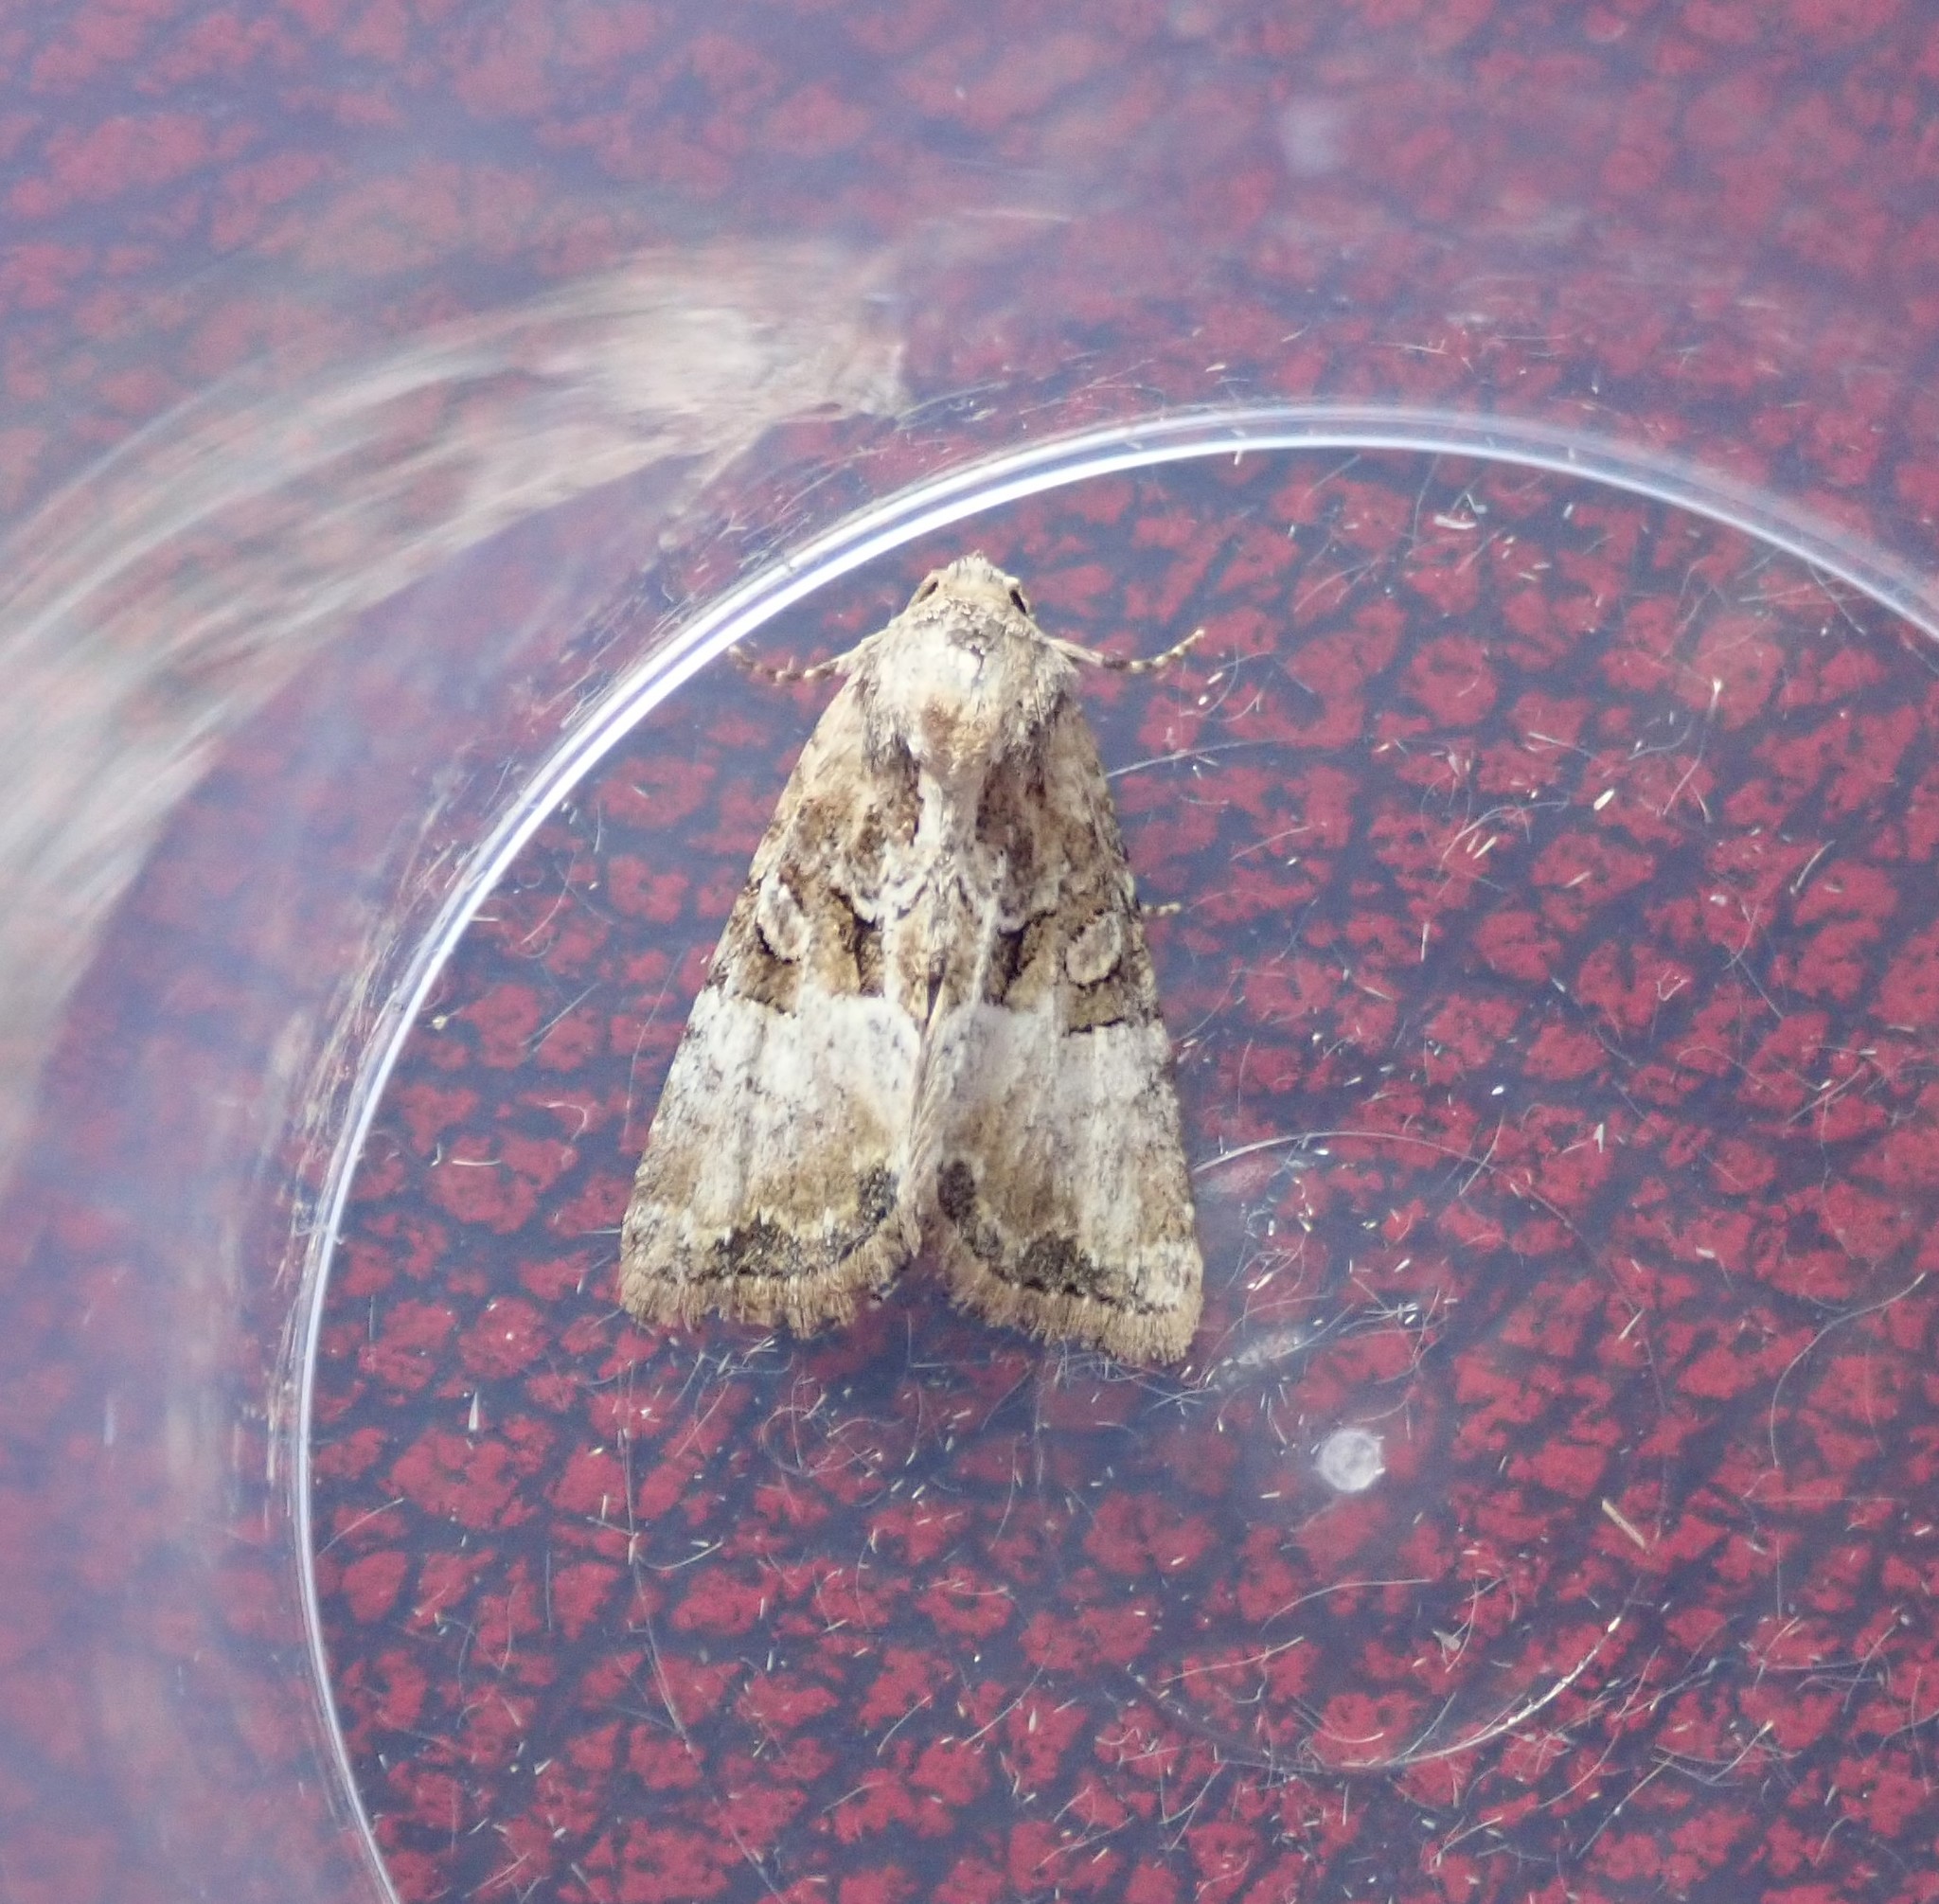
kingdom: Animalia
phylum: Arthropoda
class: Insecta
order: Lepidoptera
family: Noctuidae
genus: Mesoligia
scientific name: Mesoligia furuncula
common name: Cloaked minor
